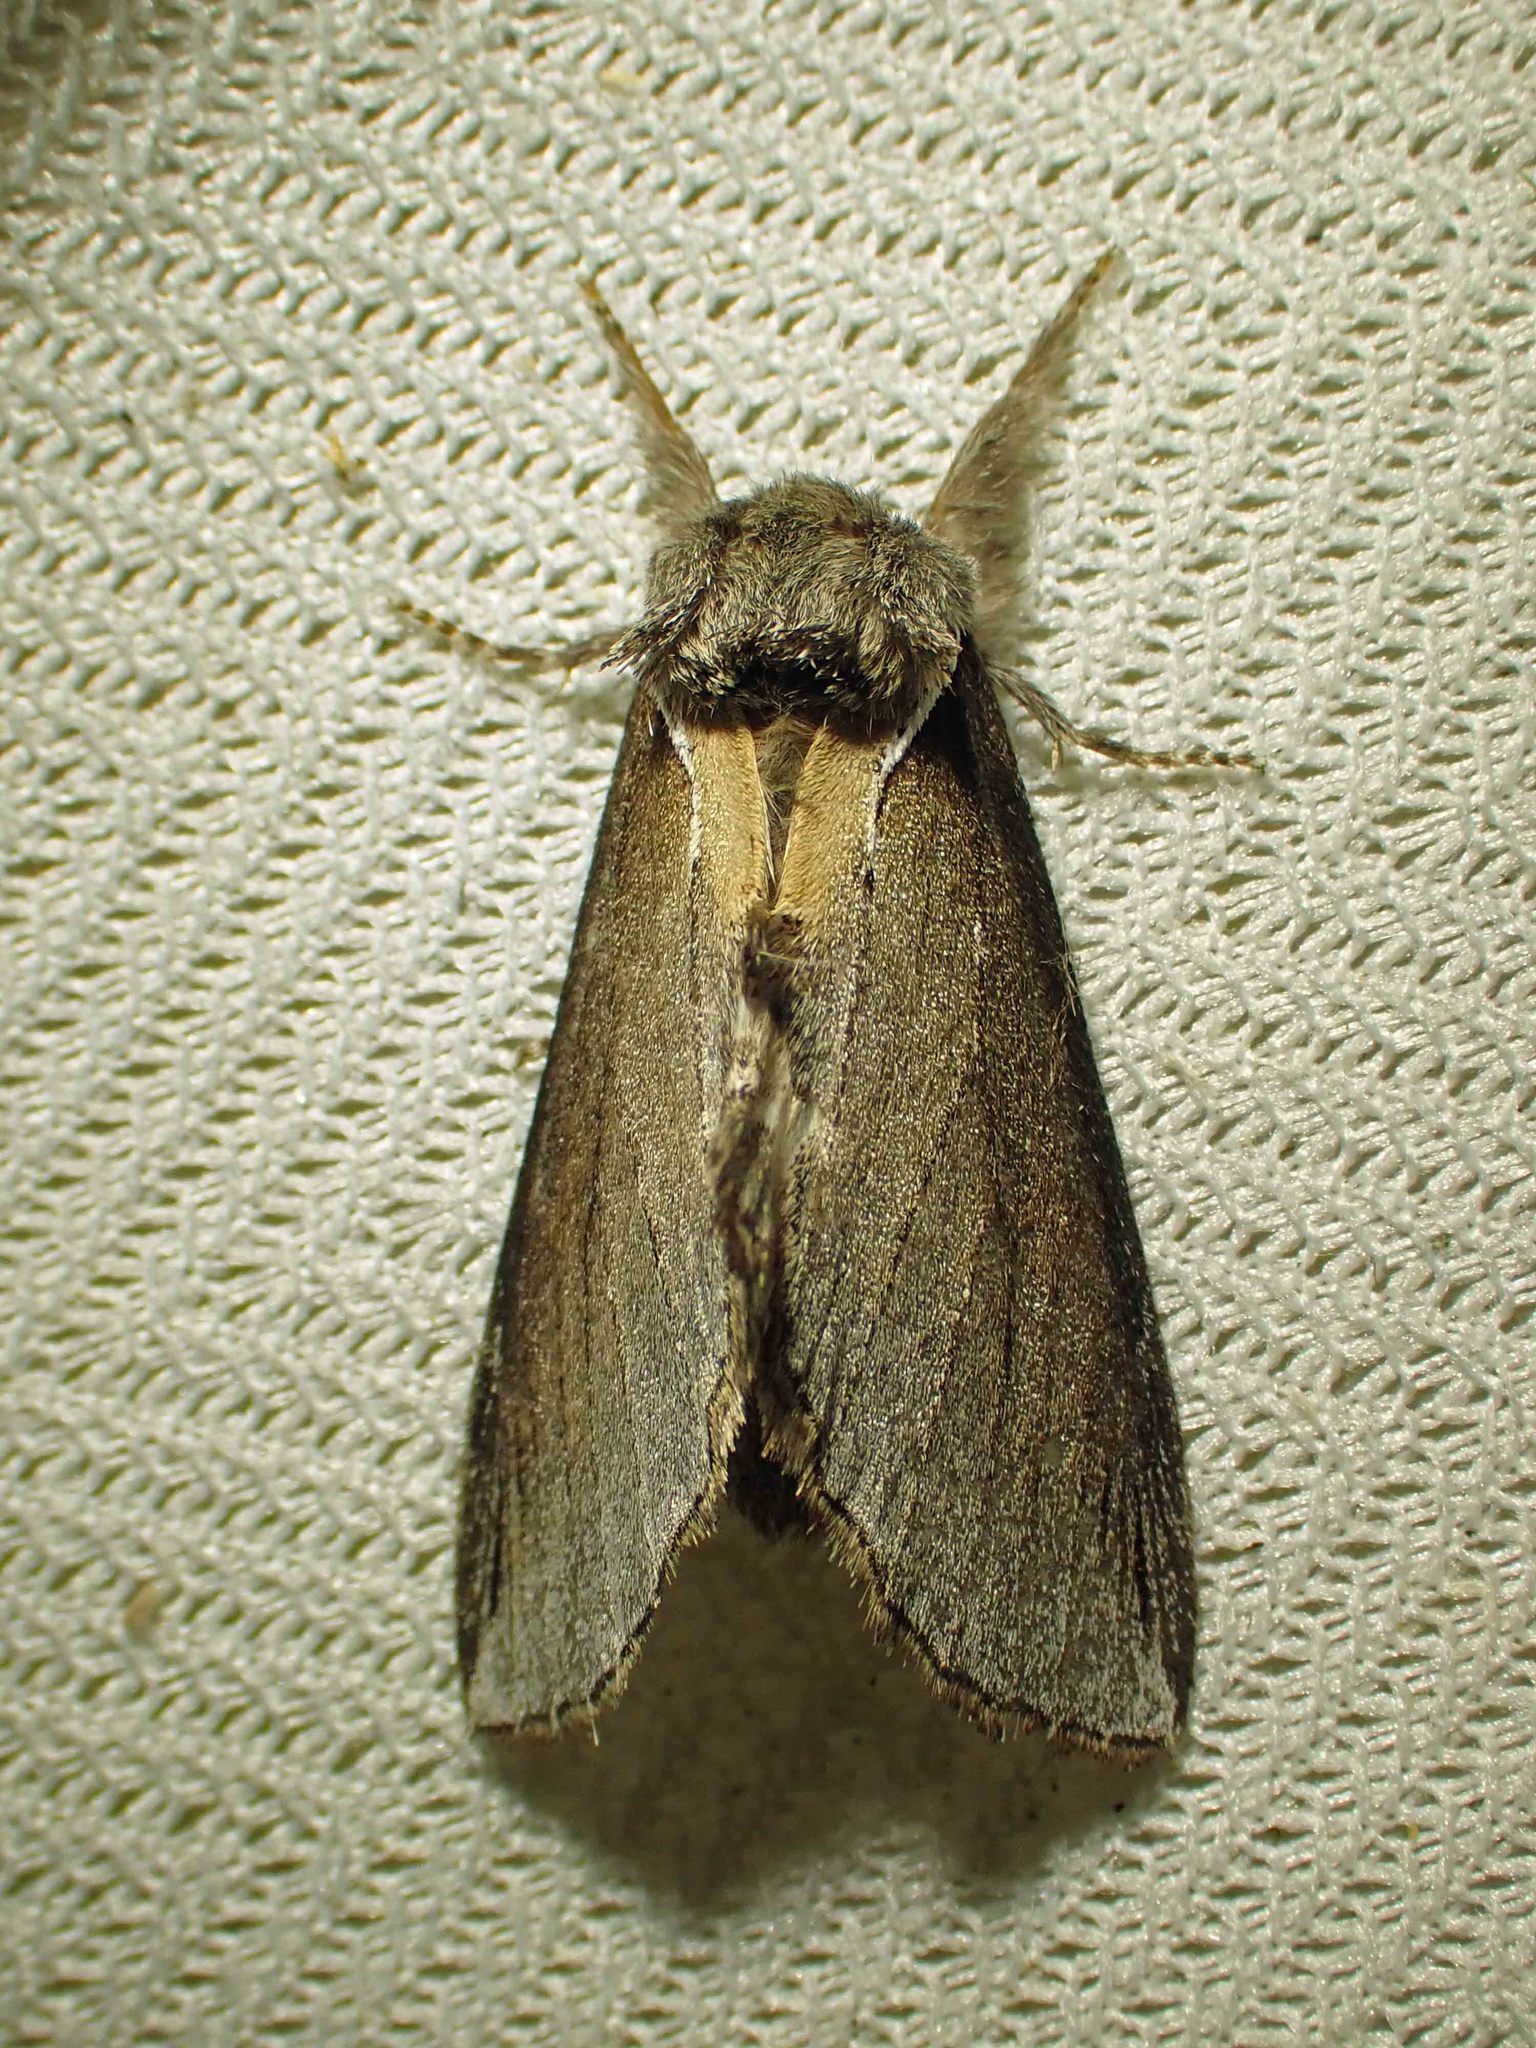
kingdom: Animalia
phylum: Arthropoda
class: Insecta
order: Lepidoptera
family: Notodontidae
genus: Pheosidea
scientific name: Pheosidea elegans
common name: Elegant prominent
